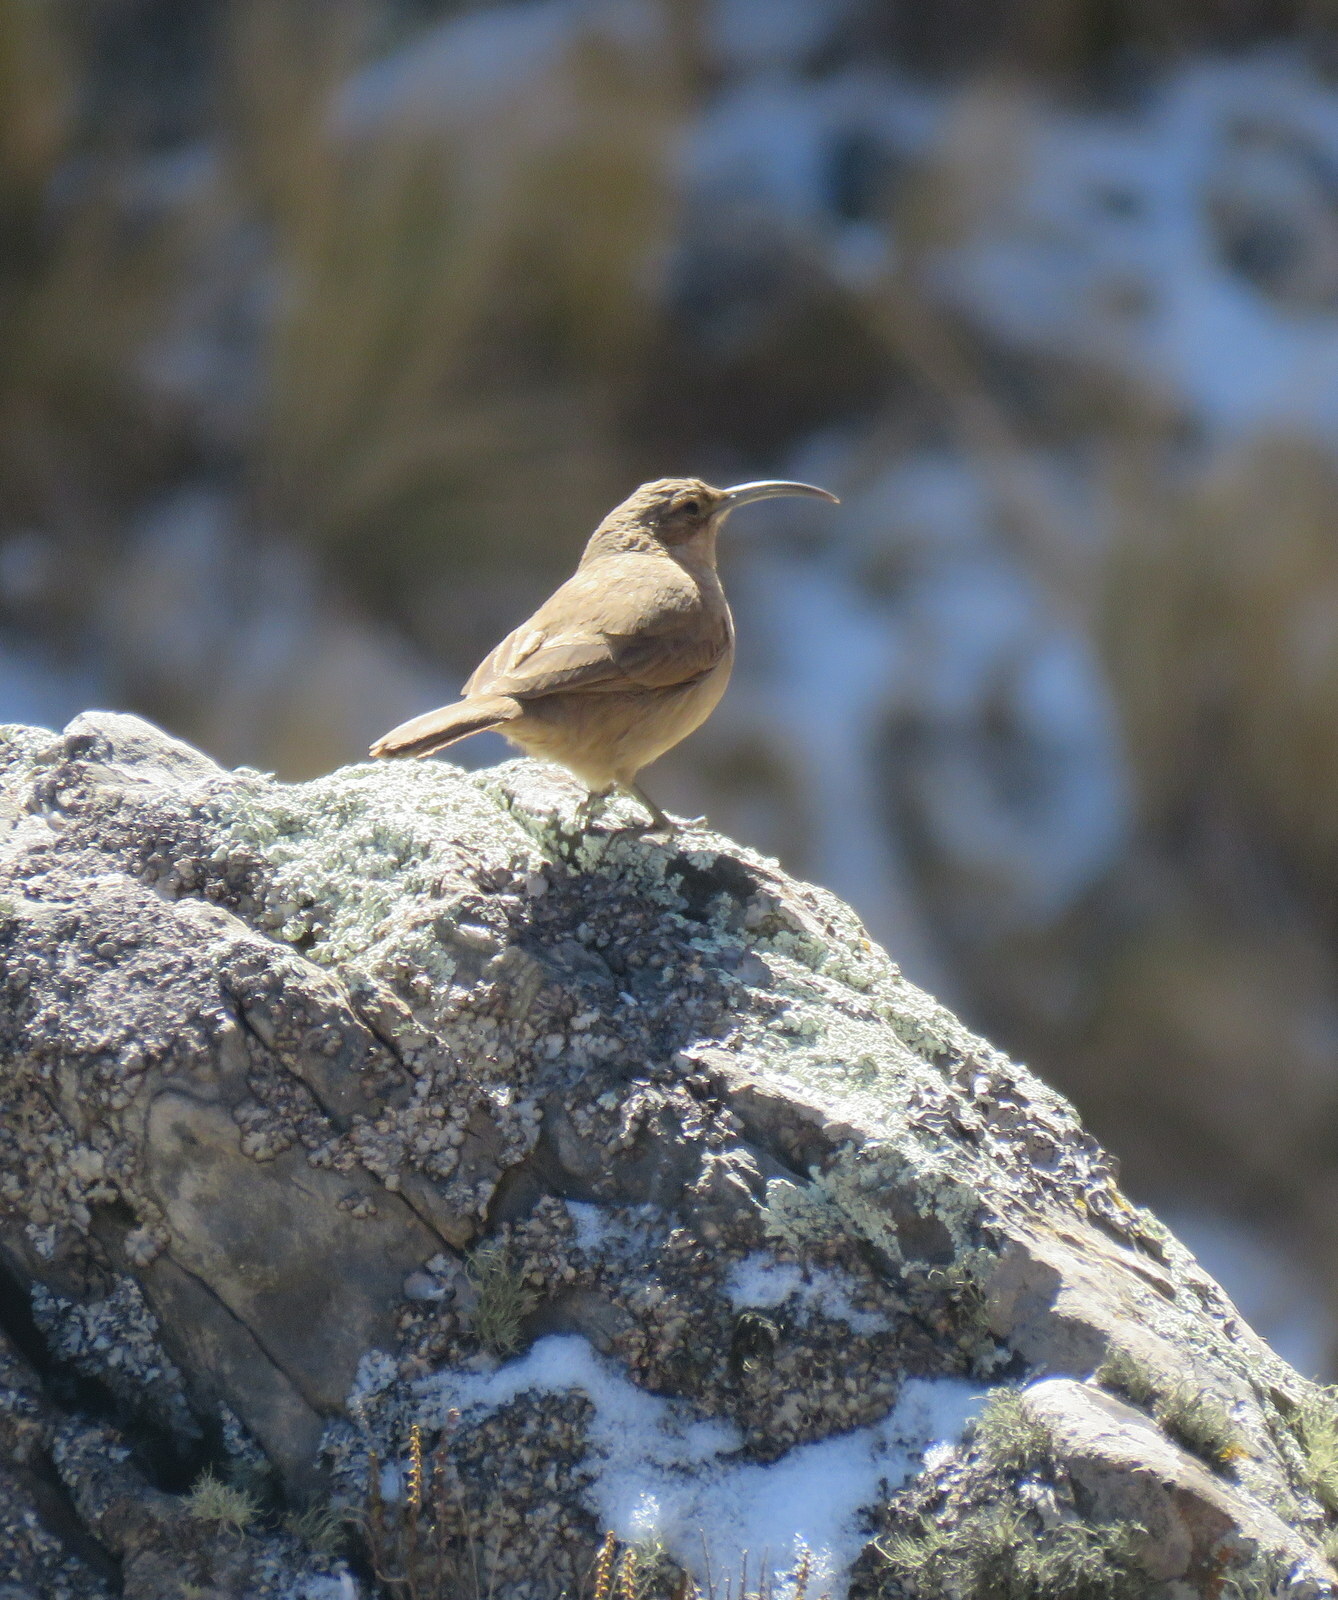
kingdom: Animalia
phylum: Chordata
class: Aves
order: Passeriformes
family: Furnariidae
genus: Upucerthia
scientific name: Upucerthia validirostris
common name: Buff-breasted earthcreeper
